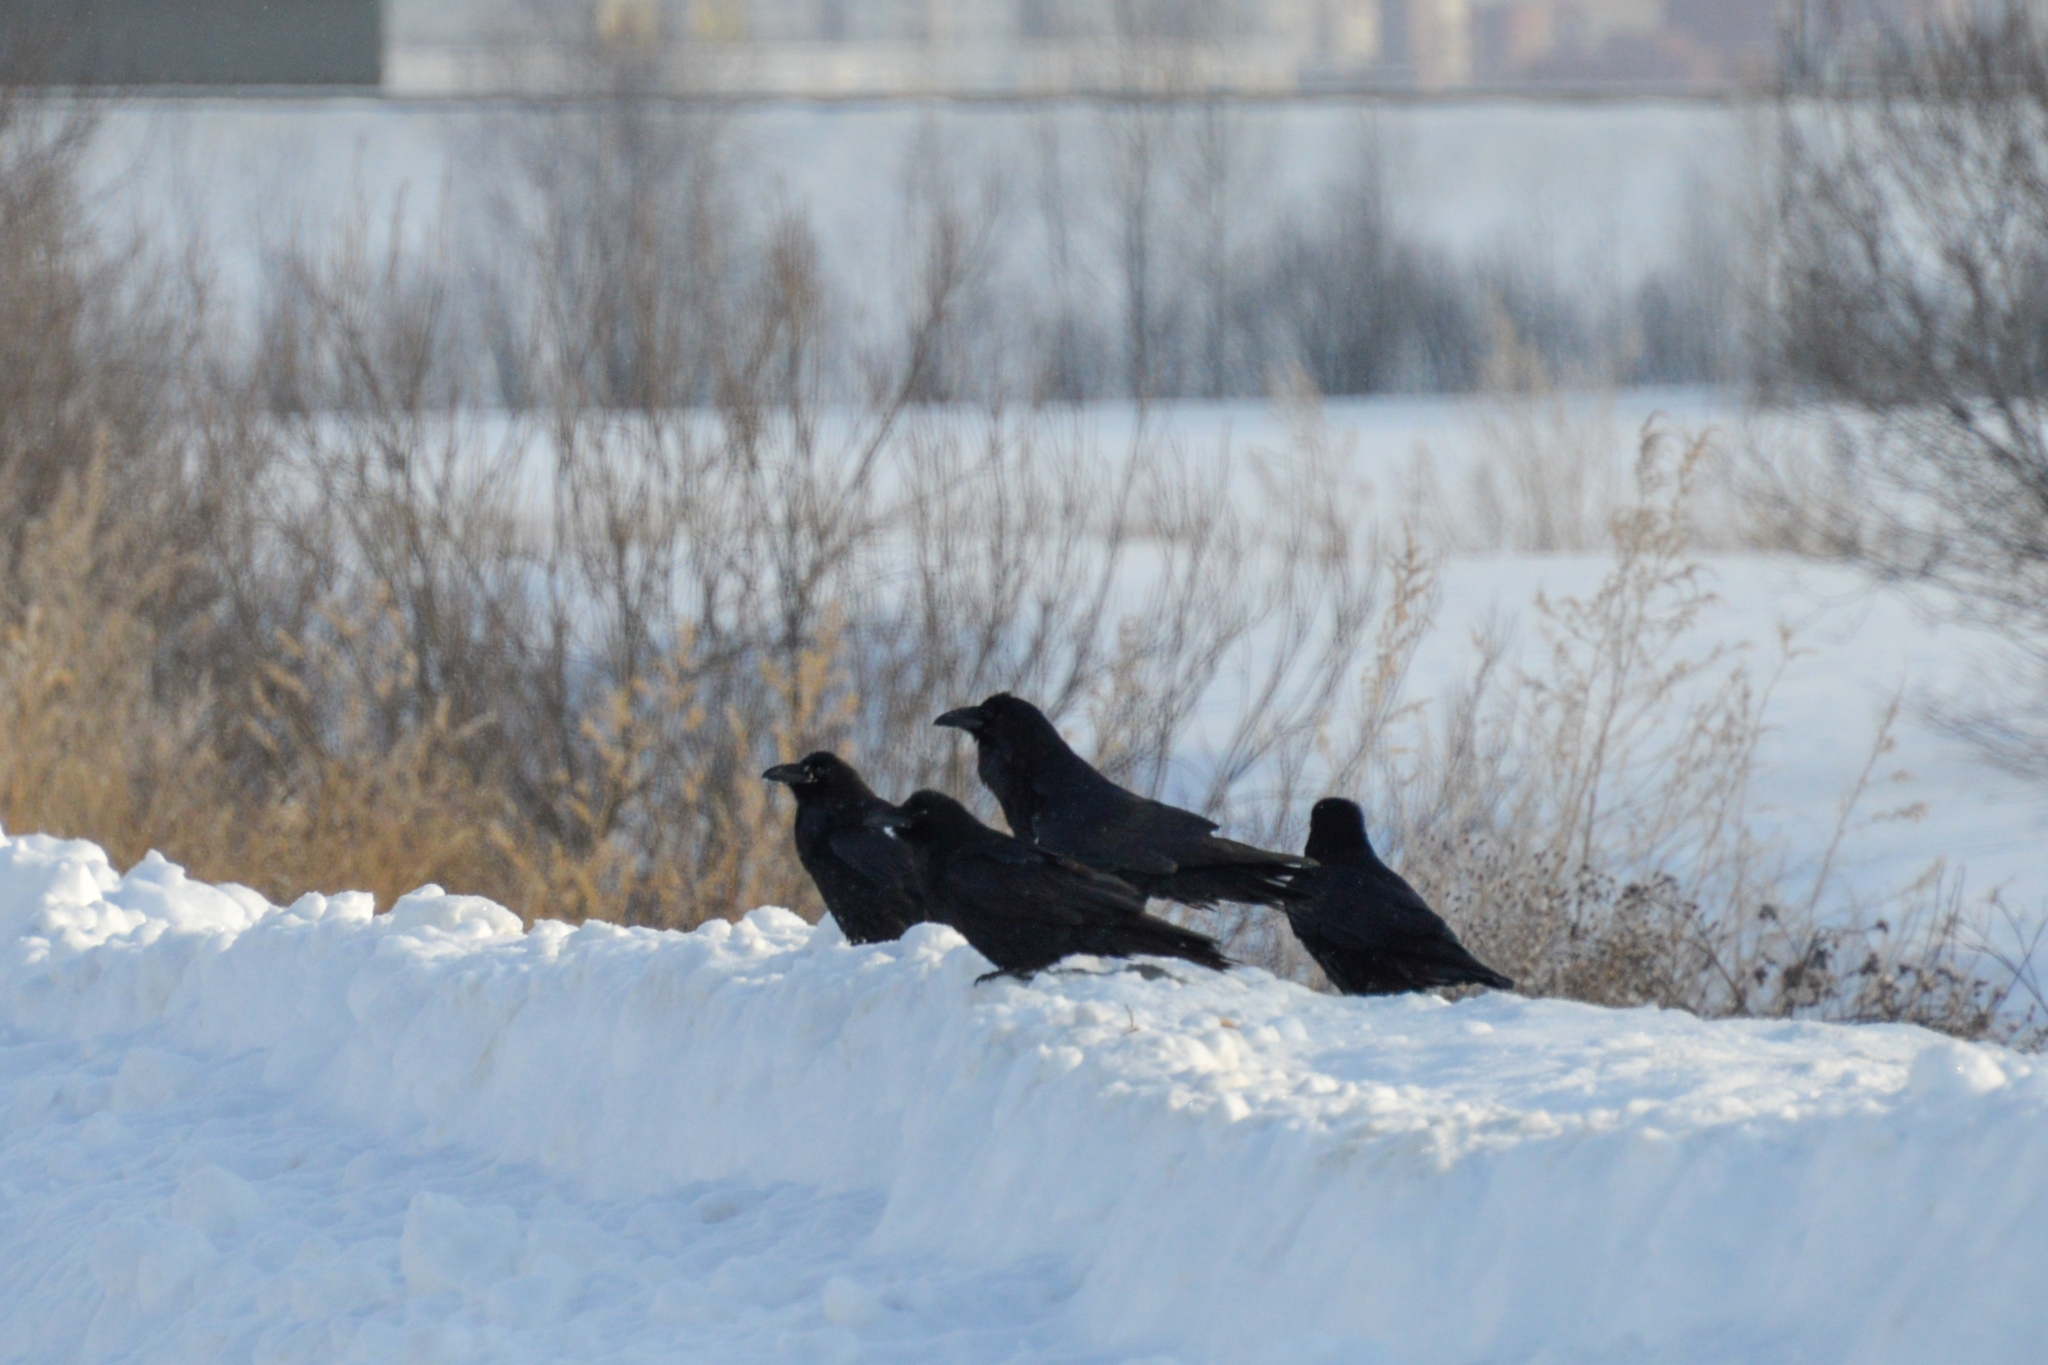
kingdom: Animalia
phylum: Chordata
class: Aves
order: Passeriformes
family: Corvidae
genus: Corvus
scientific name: Corvus corax
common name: Common raven
